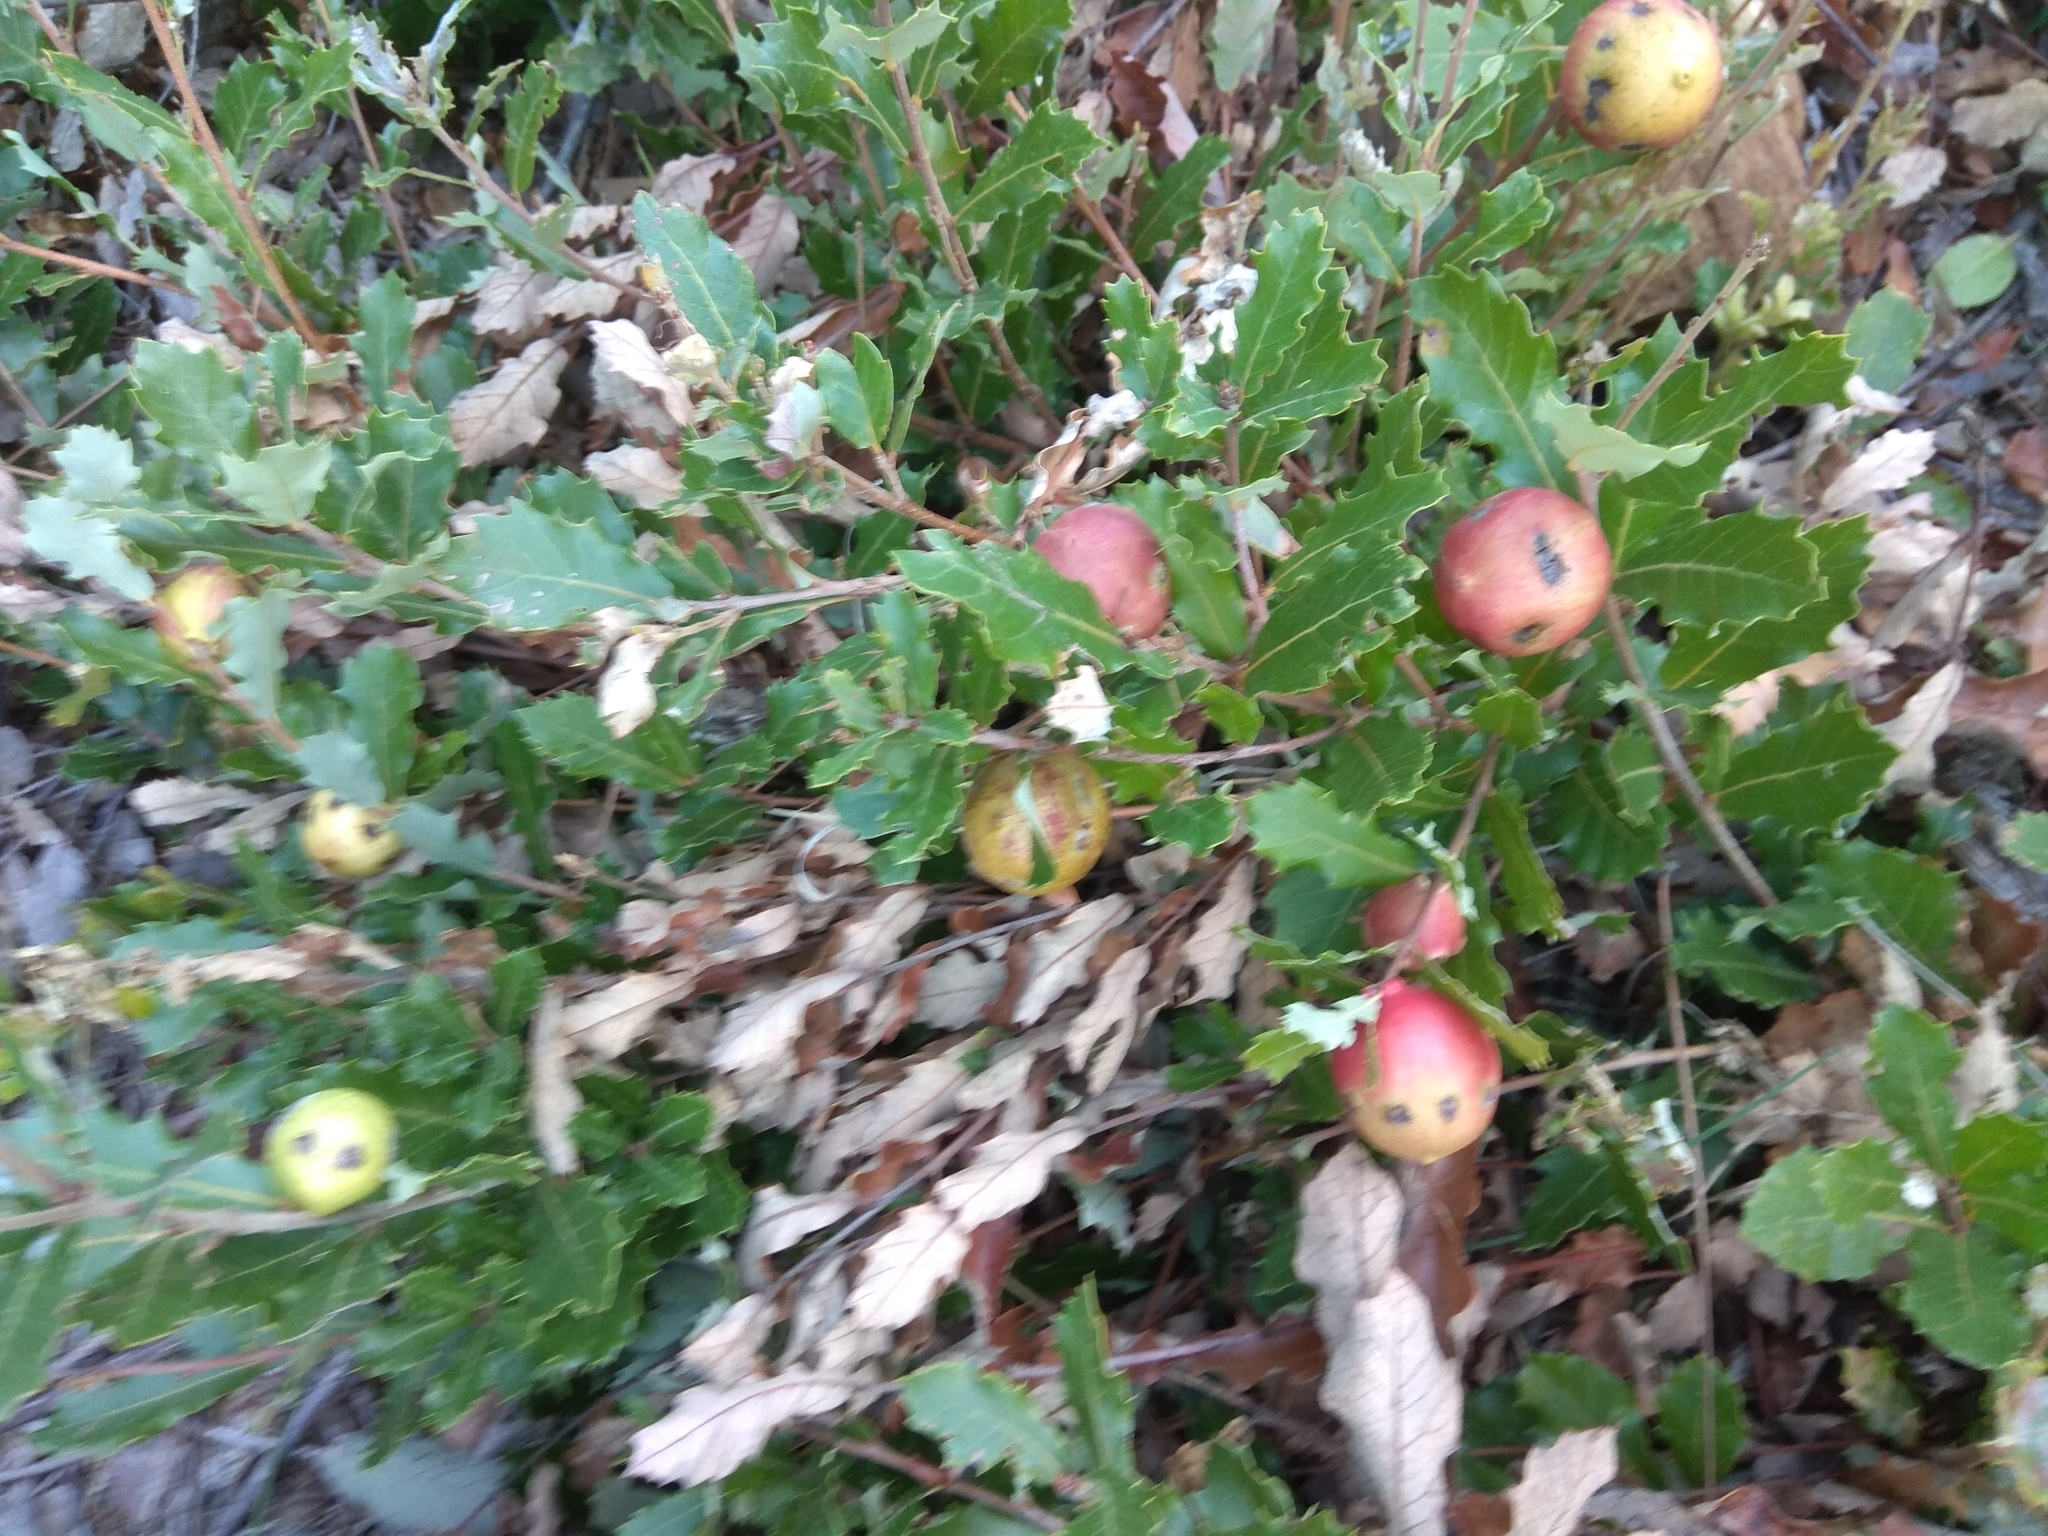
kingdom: Plantae
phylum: Tracheophyta
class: Magnoliopsida
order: Fagales
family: Fagaceae
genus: Quercus
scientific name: Quercus lusitanica
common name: Scrub gall oak
